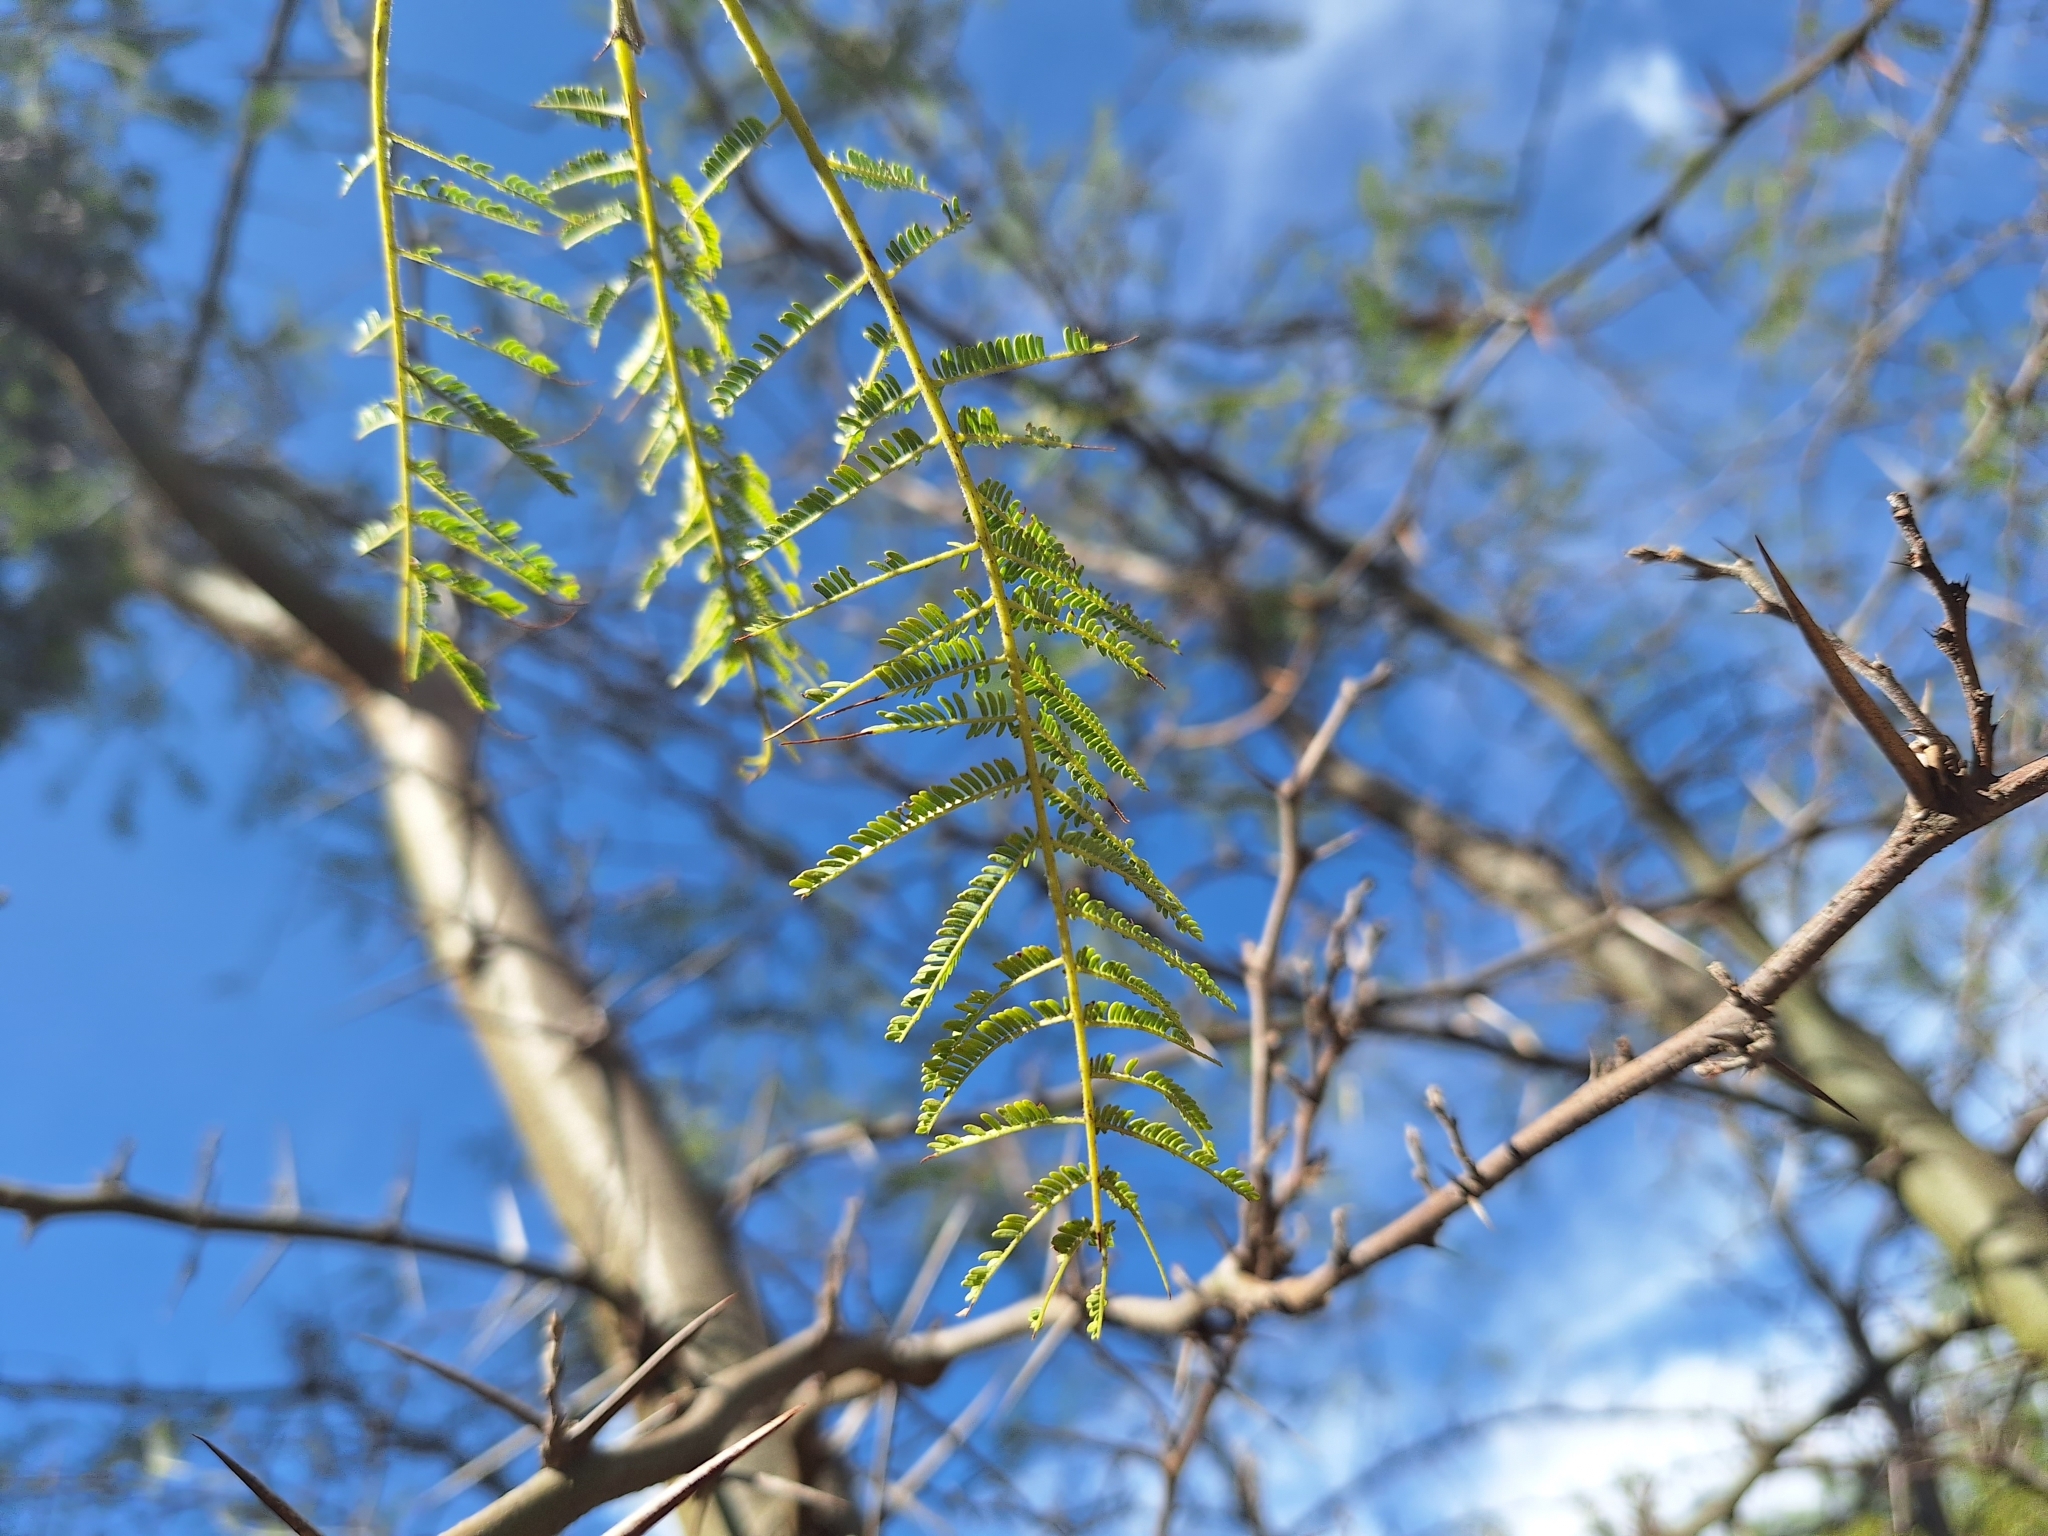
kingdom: Plantae
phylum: Tracheophyta
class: Magnoliopsida
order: Fabales
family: Fabaceae
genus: Mimosa
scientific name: Mimosa quitensis
